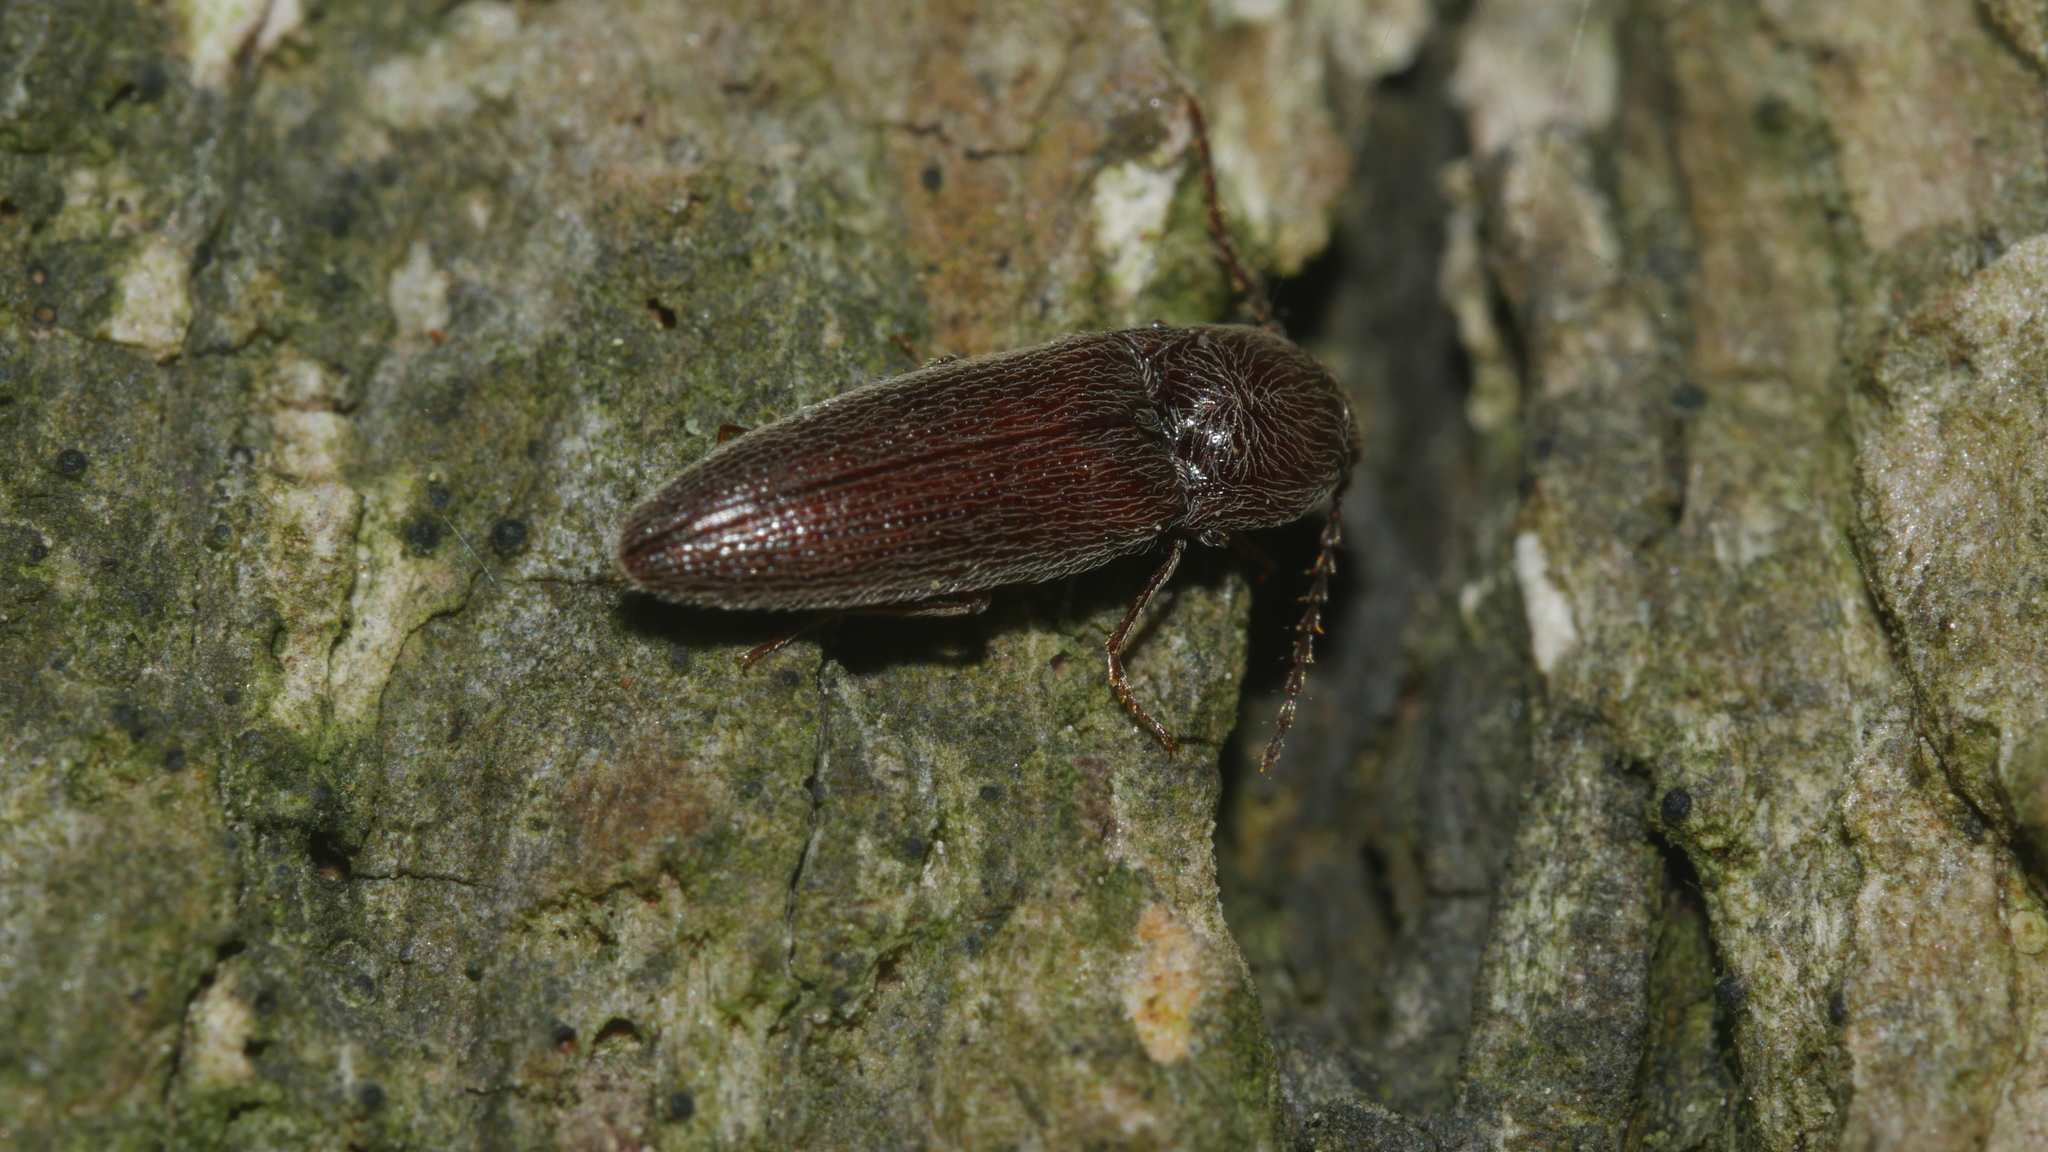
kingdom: Animalia
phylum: Arthropoda
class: Insecta
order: Coleoptera
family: Elateridae
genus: Melanotus
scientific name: Melanotus americanus
